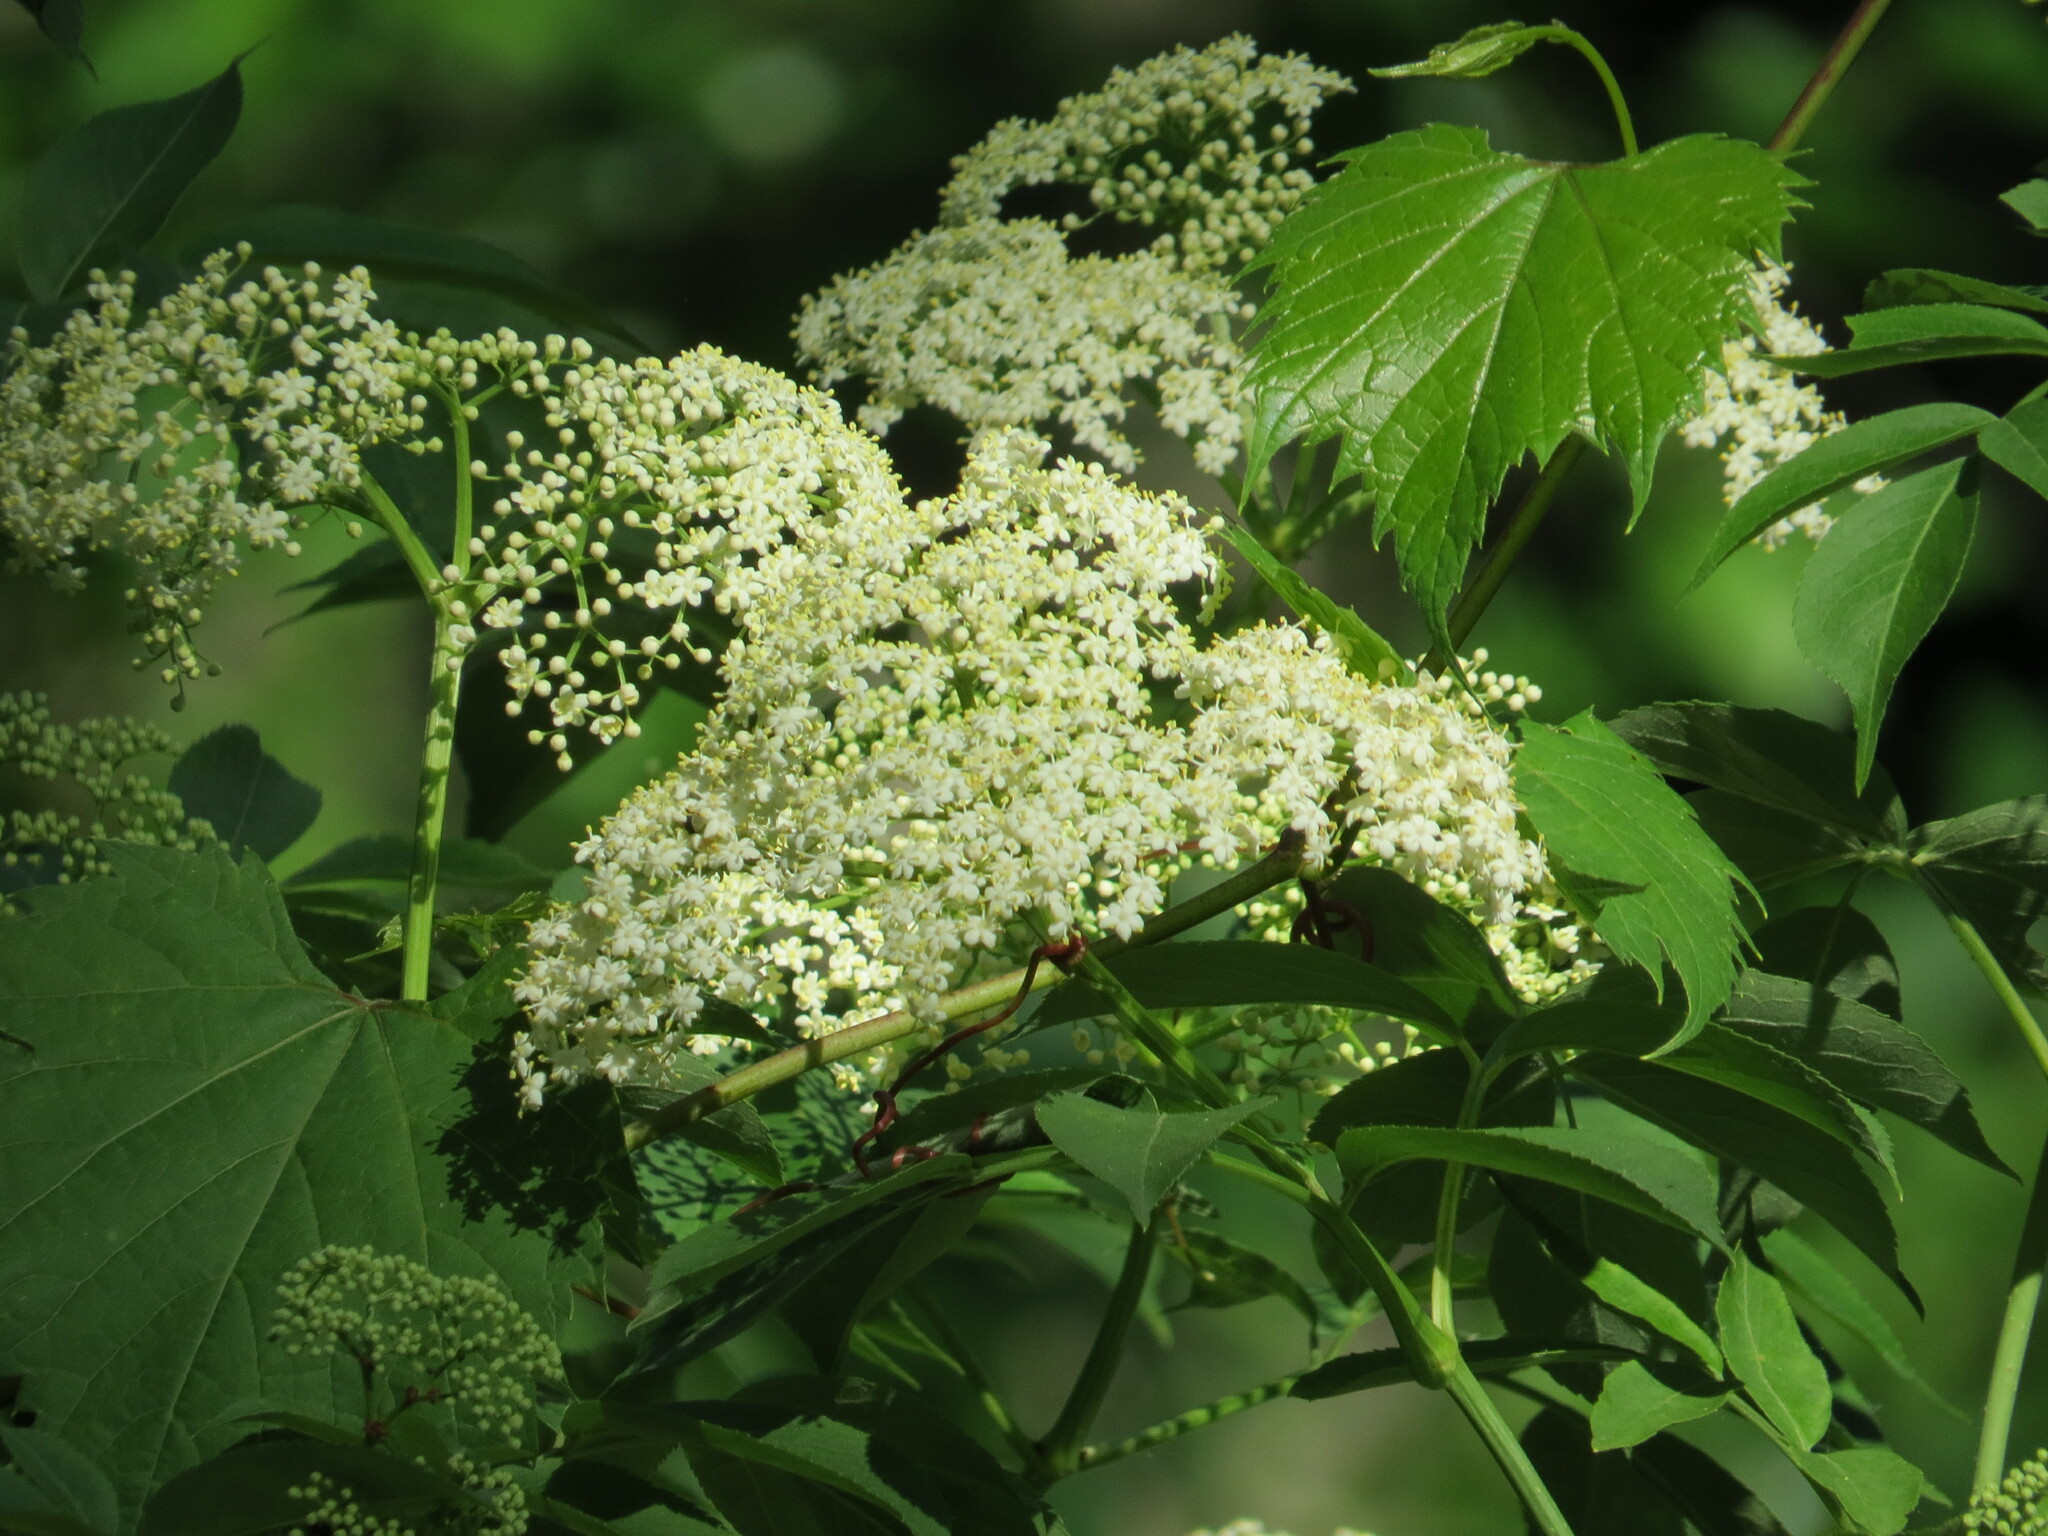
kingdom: Plantae
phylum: Tracheophyta
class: Magnoliopsida
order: Dipsacales
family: Viburnaceae
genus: Sambucus
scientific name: Sambucus canadensis
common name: American elder
